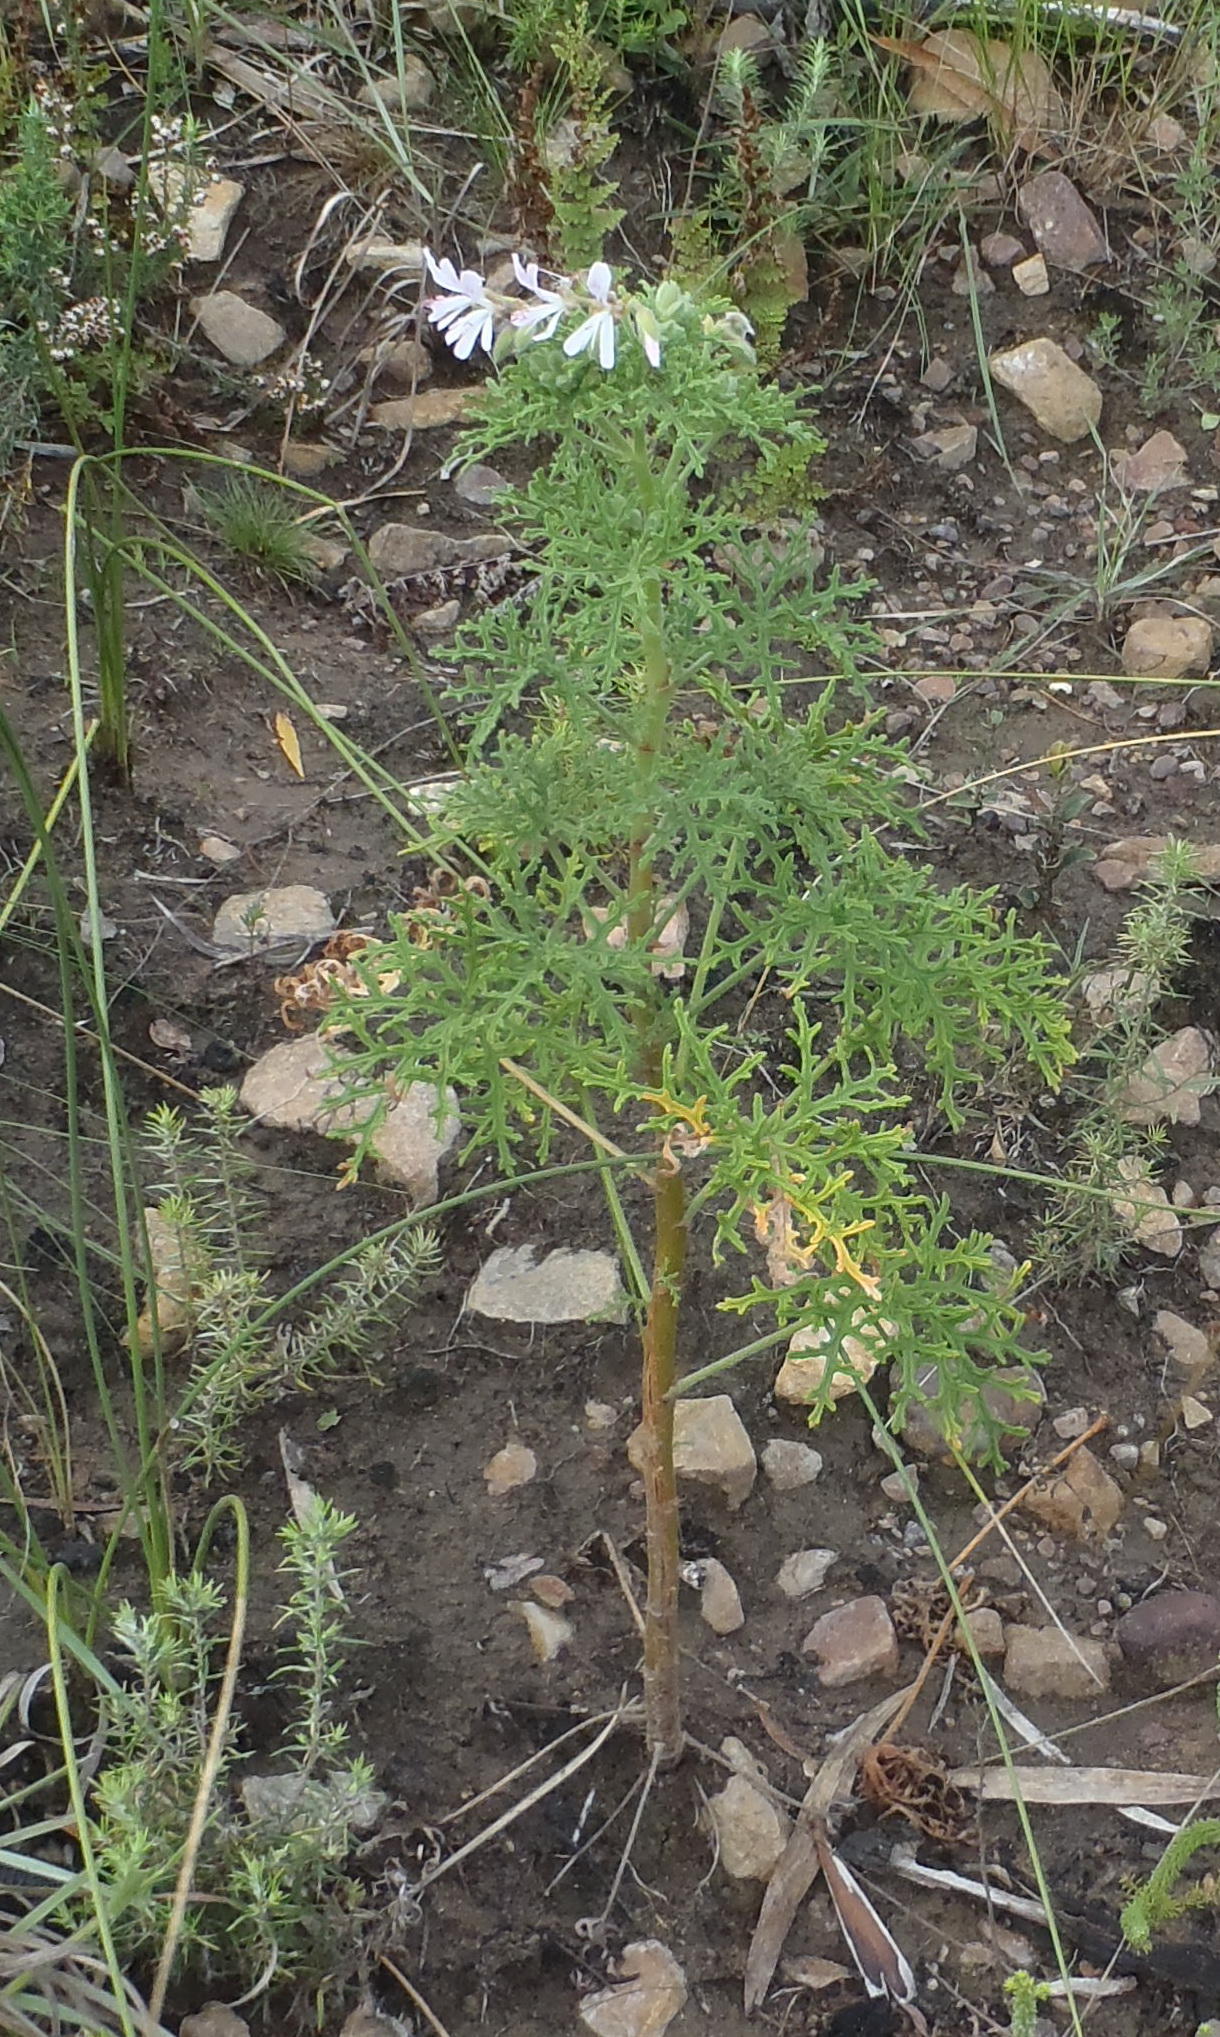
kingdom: Plantae
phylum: Tracheophyta
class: Magnoliopsida
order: Geraniales
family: Geraniaceae
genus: Pelargonium
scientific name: Pelargonium radens
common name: Rasp-leaf pelargonium
